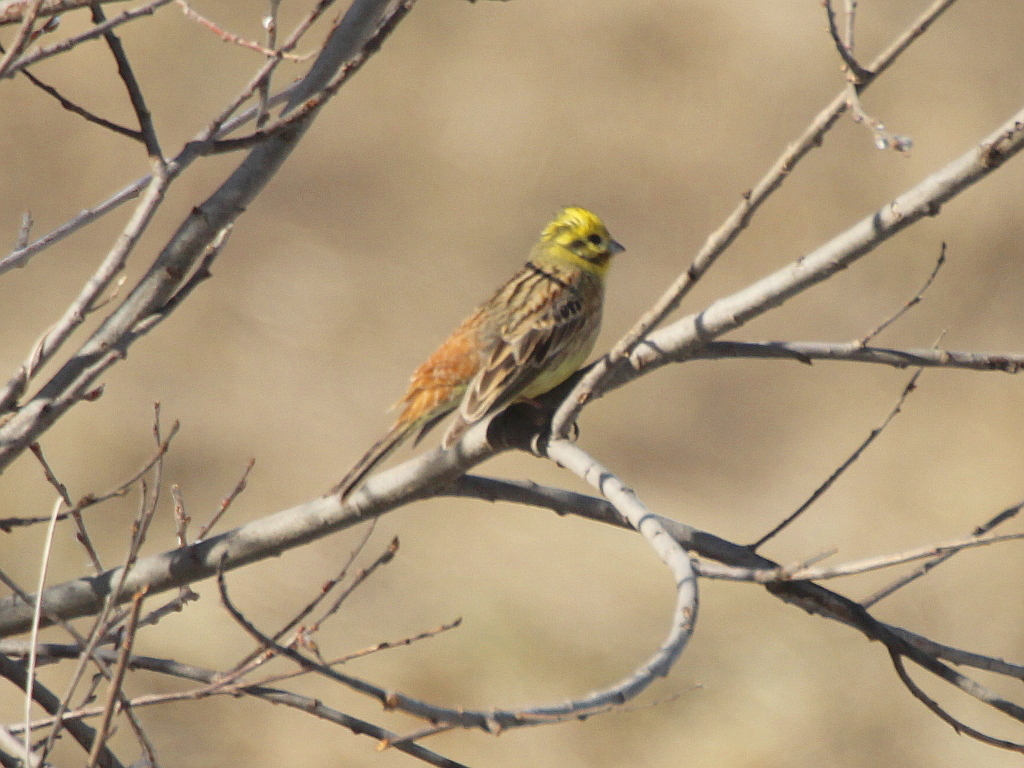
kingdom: Animalia
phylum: Chordata
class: Aves
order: Passeriformes
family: Emberizidae
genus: Emberiza
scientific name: Emberiza
